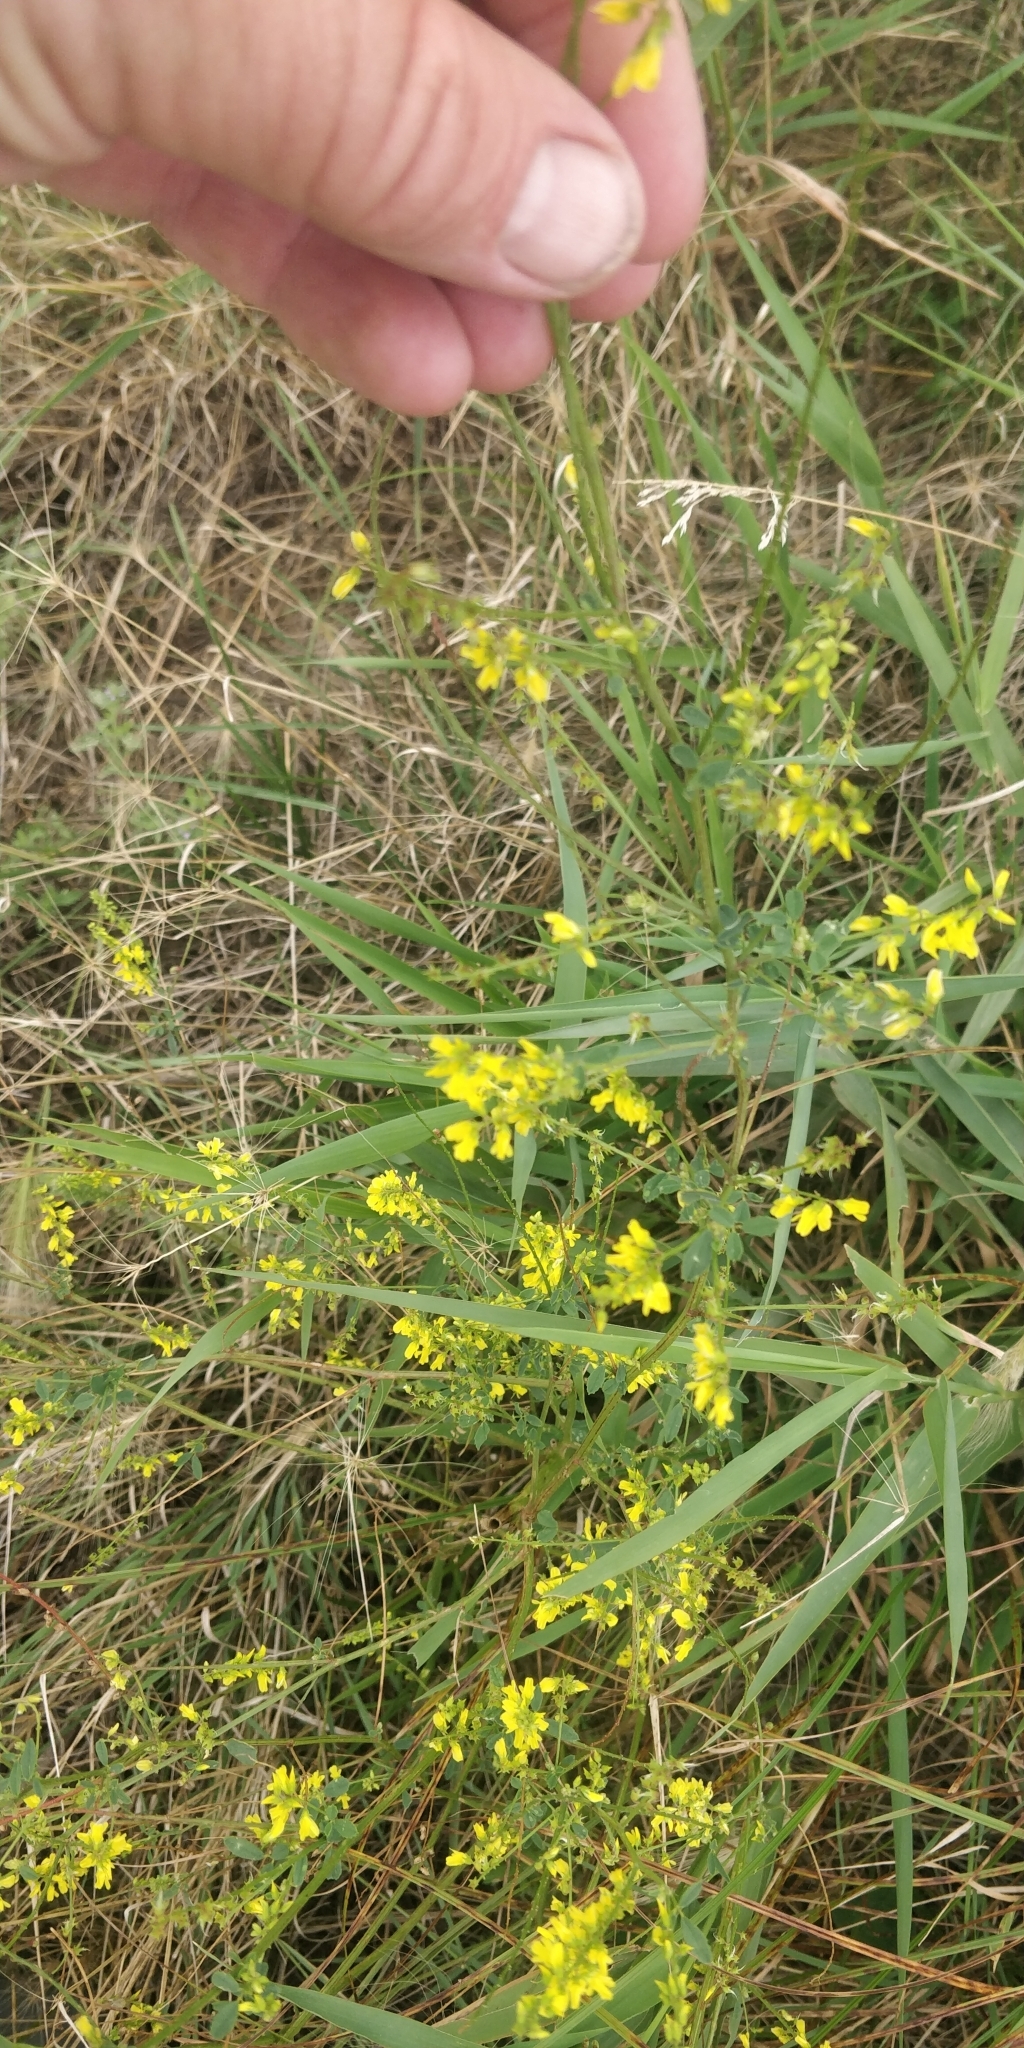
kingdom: Plantae
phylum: Tracheophyta
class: Magnoliopsida
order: Fabales
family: Fabaceae
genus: Melilotus
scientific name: Melilotus officinalis
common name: Sweetclover
